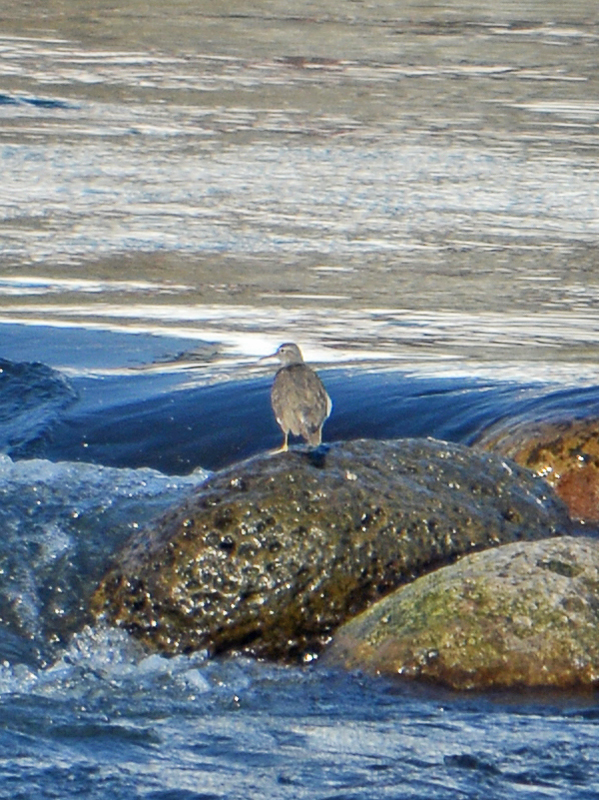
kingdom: Animalia
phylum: Chordata
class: Aves
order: Charadriiformes
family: Scolopacidae
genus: Actitis
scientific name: Actitis macularius
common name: Spotted sandpiper
